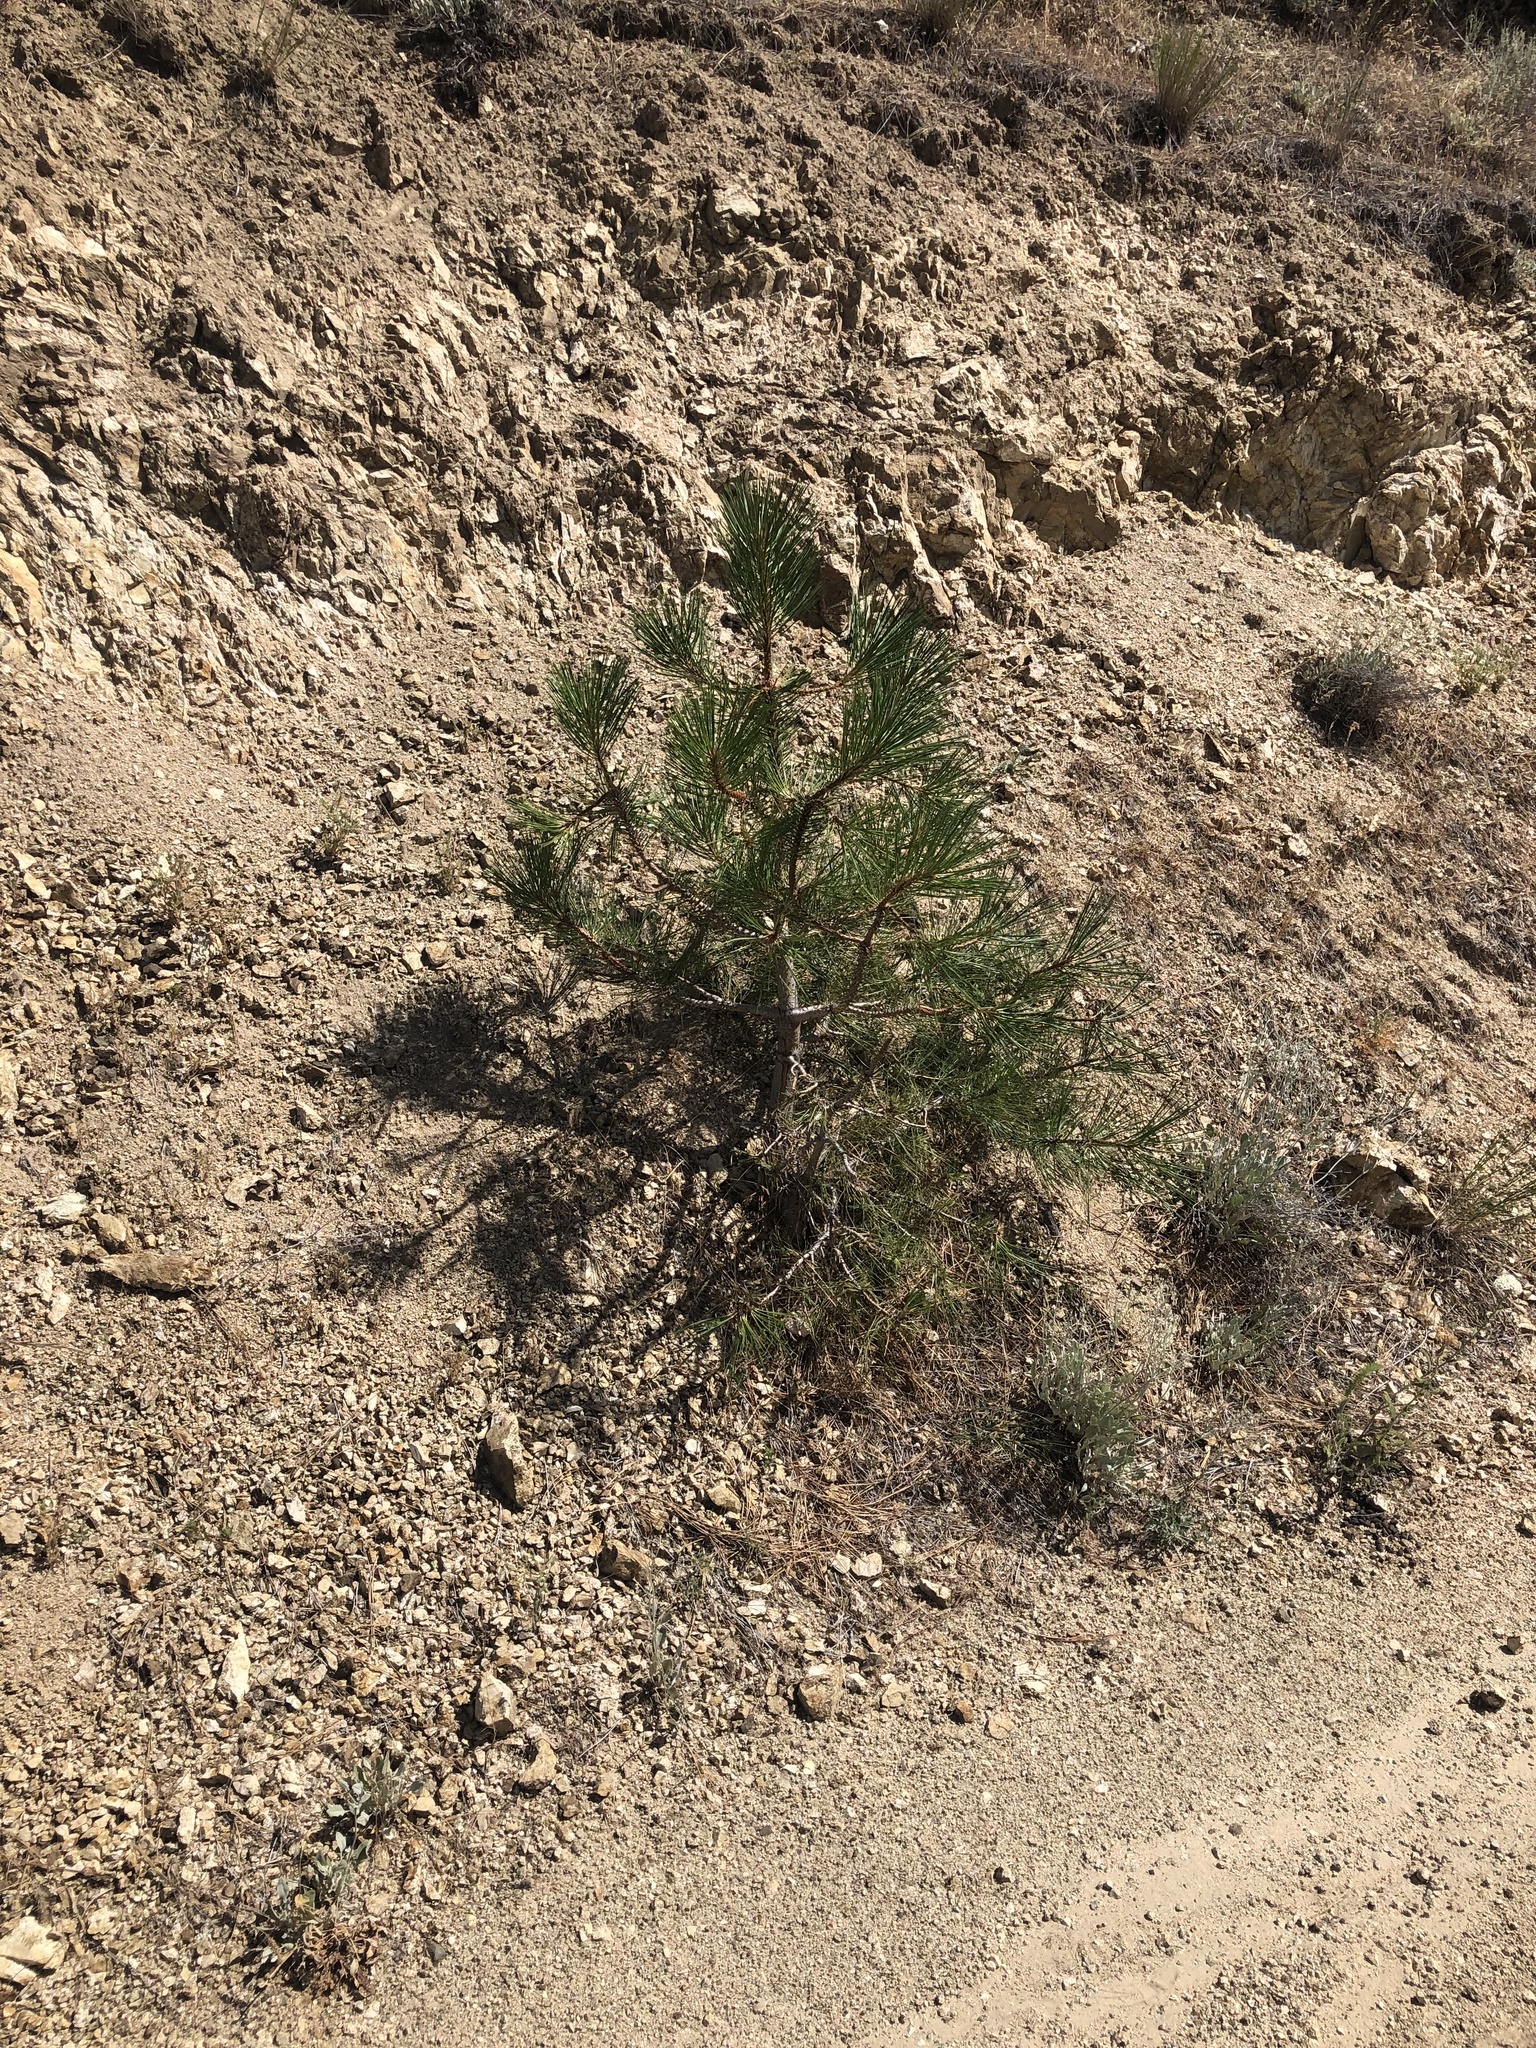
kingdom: Plantae
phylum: Tracheophyta
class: Pinopsida
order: Pinales
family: Pinaceae
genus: Pinus
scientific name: Pinus ponderosa
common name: Western yellow-pine
